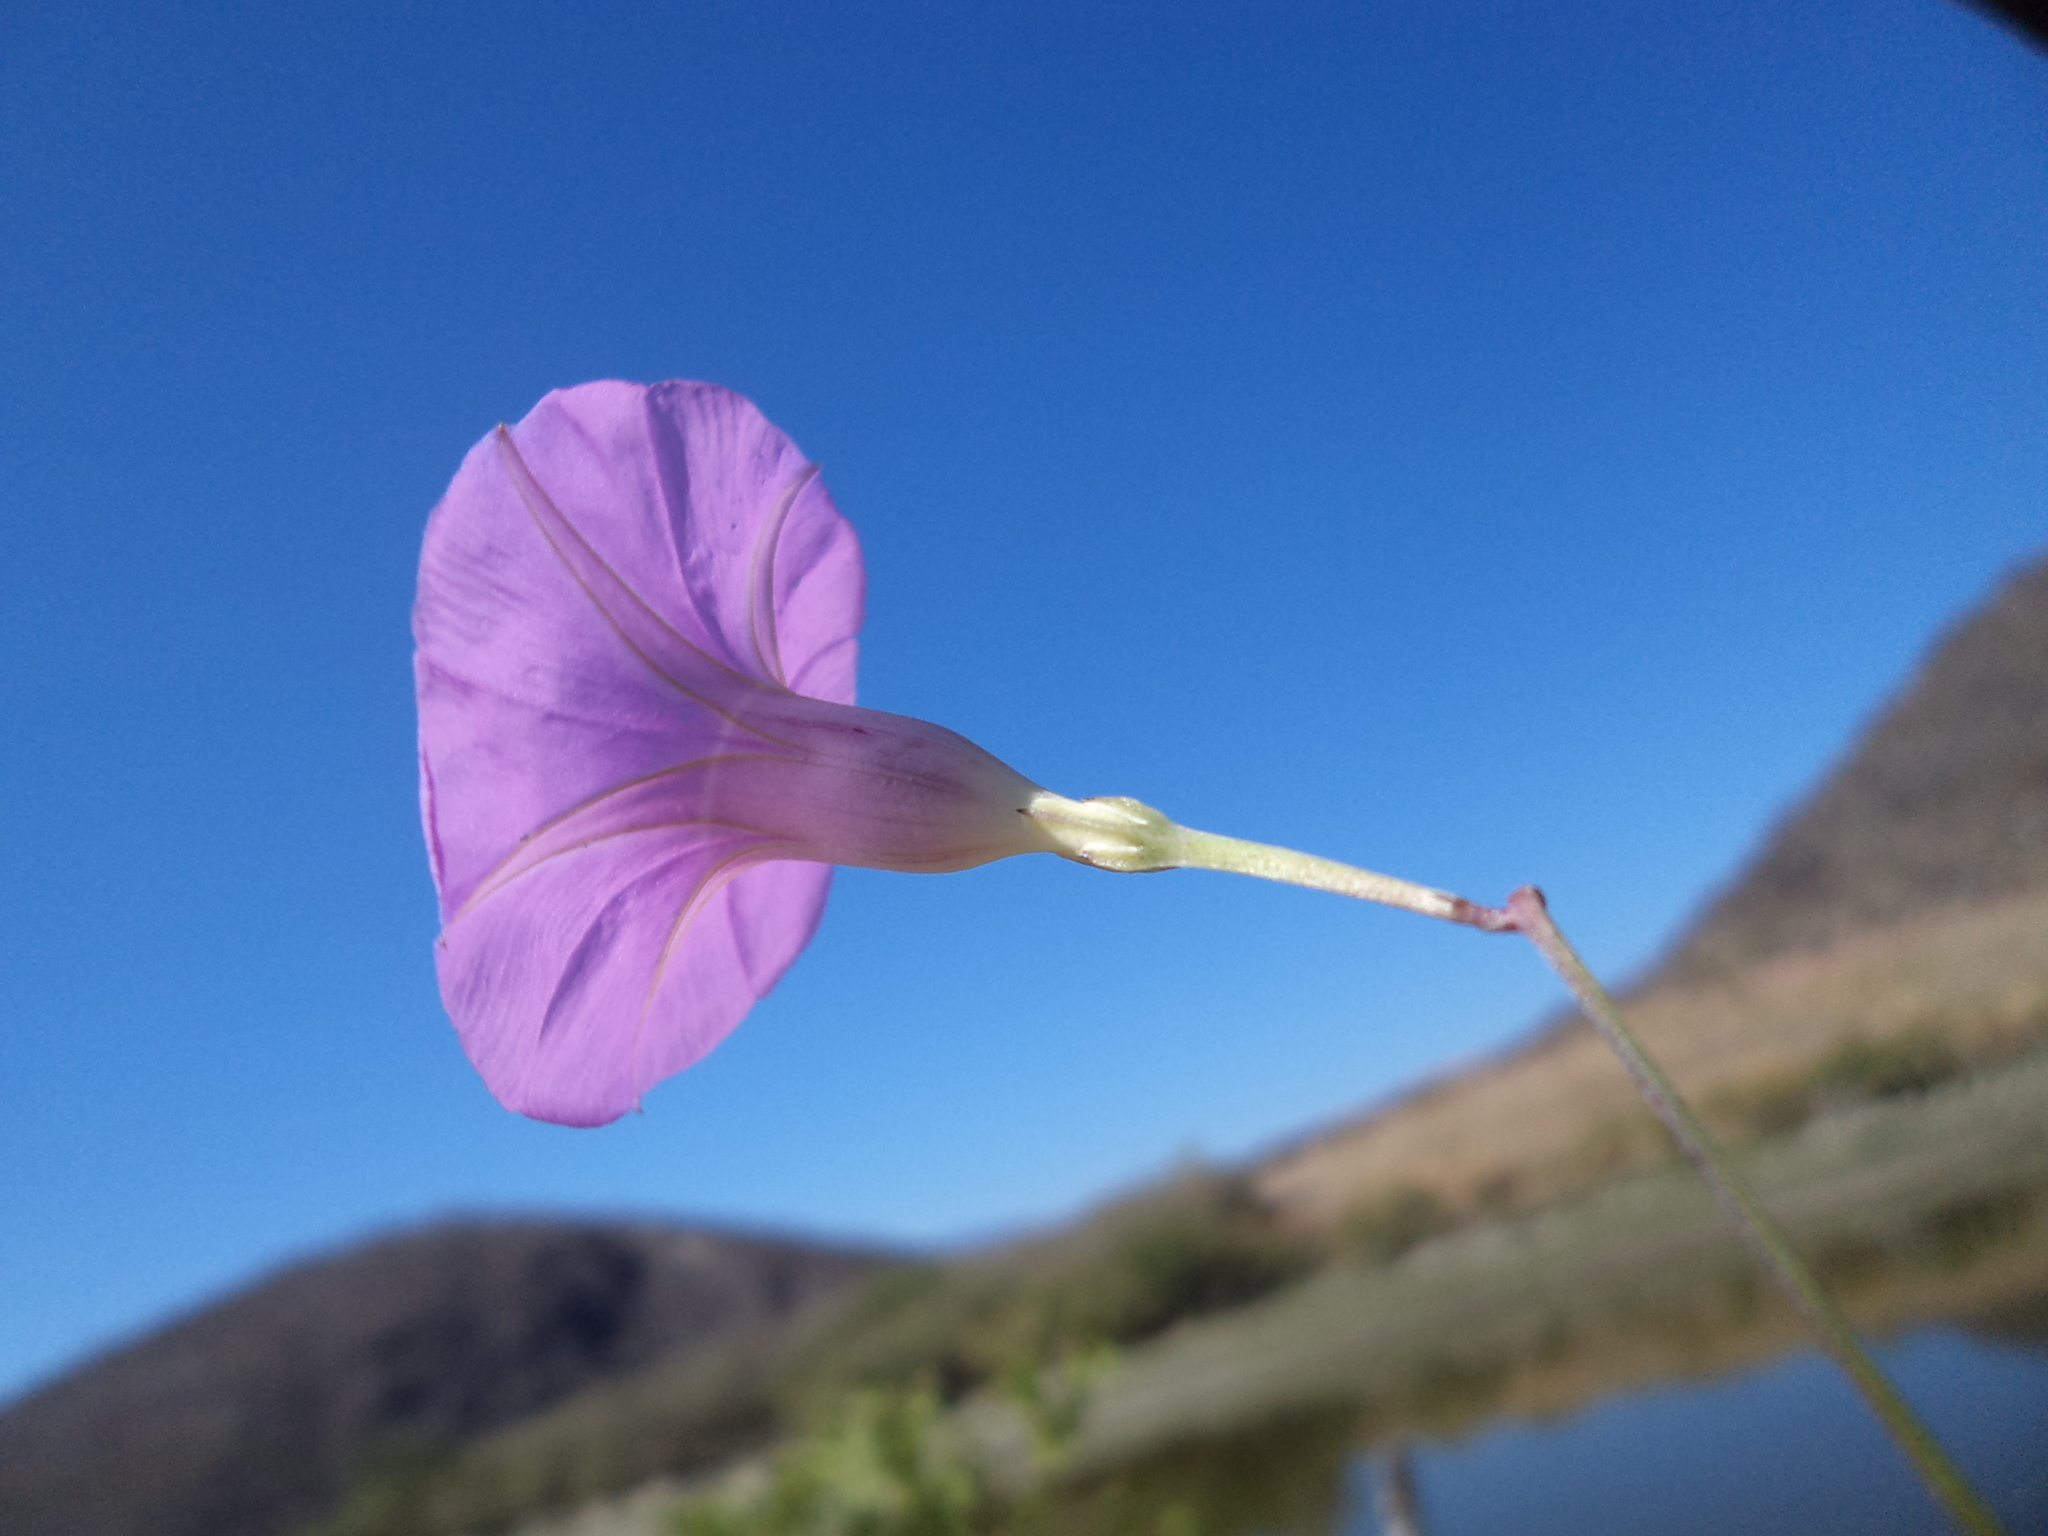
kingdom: Plantae
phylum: Tracheophyta
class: Magnoliopsida
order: Solanales
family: Convolvulaceae
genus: Ipomoea
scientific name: Ipomoea ternifolia
